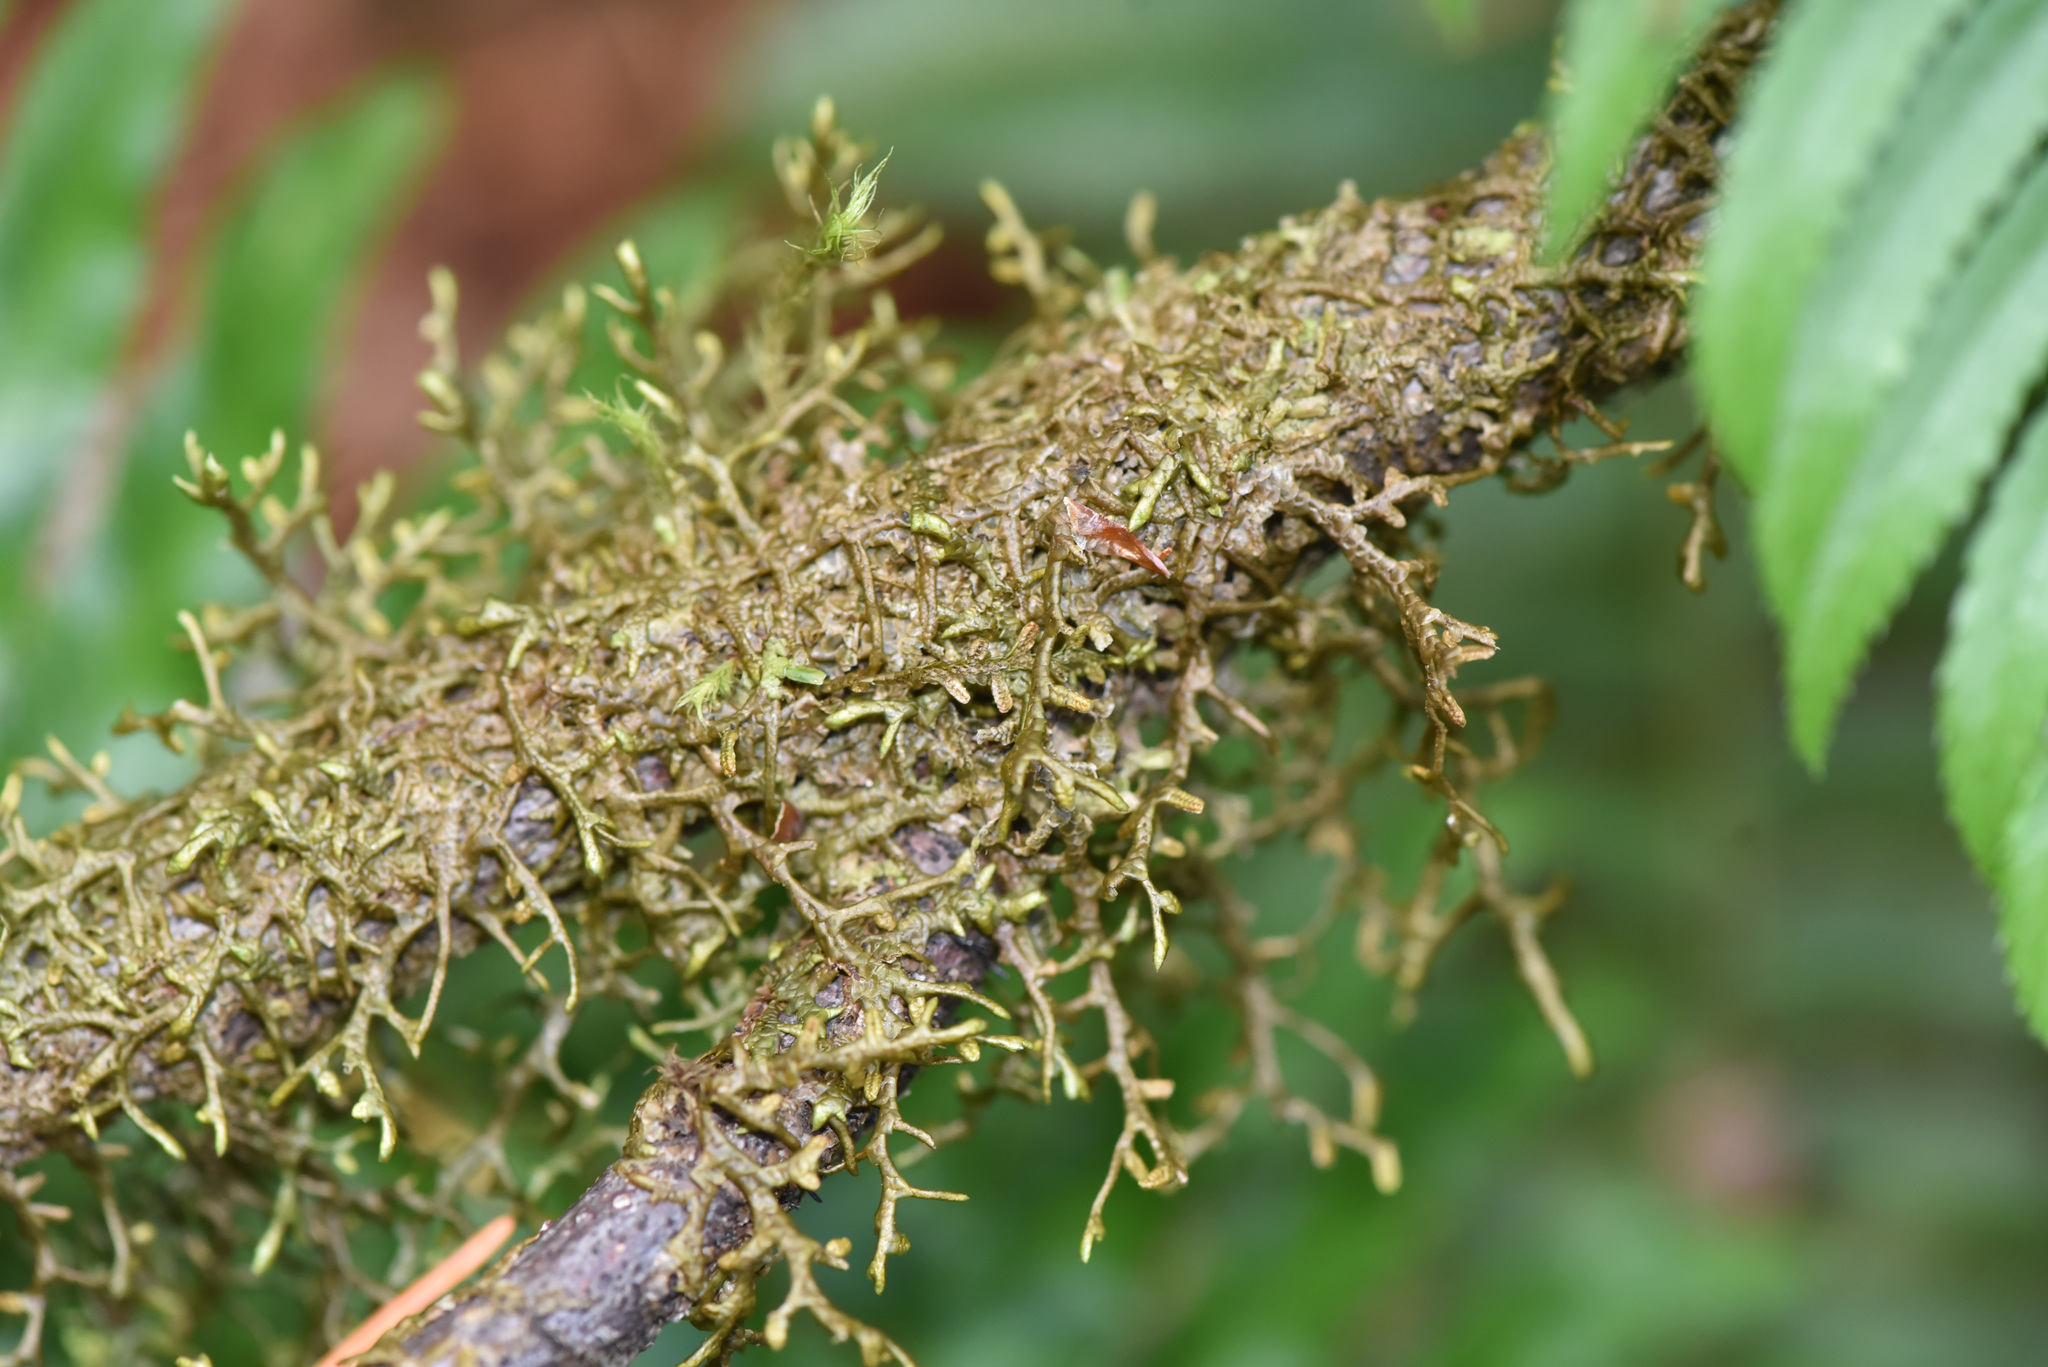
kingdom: Plantae
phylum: Marchantiophyta
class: Jungermanniopsida
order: Porellales
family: Porellaceae
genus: Porella
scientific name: Porella navicularis
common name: Tree ruffle liverwort
